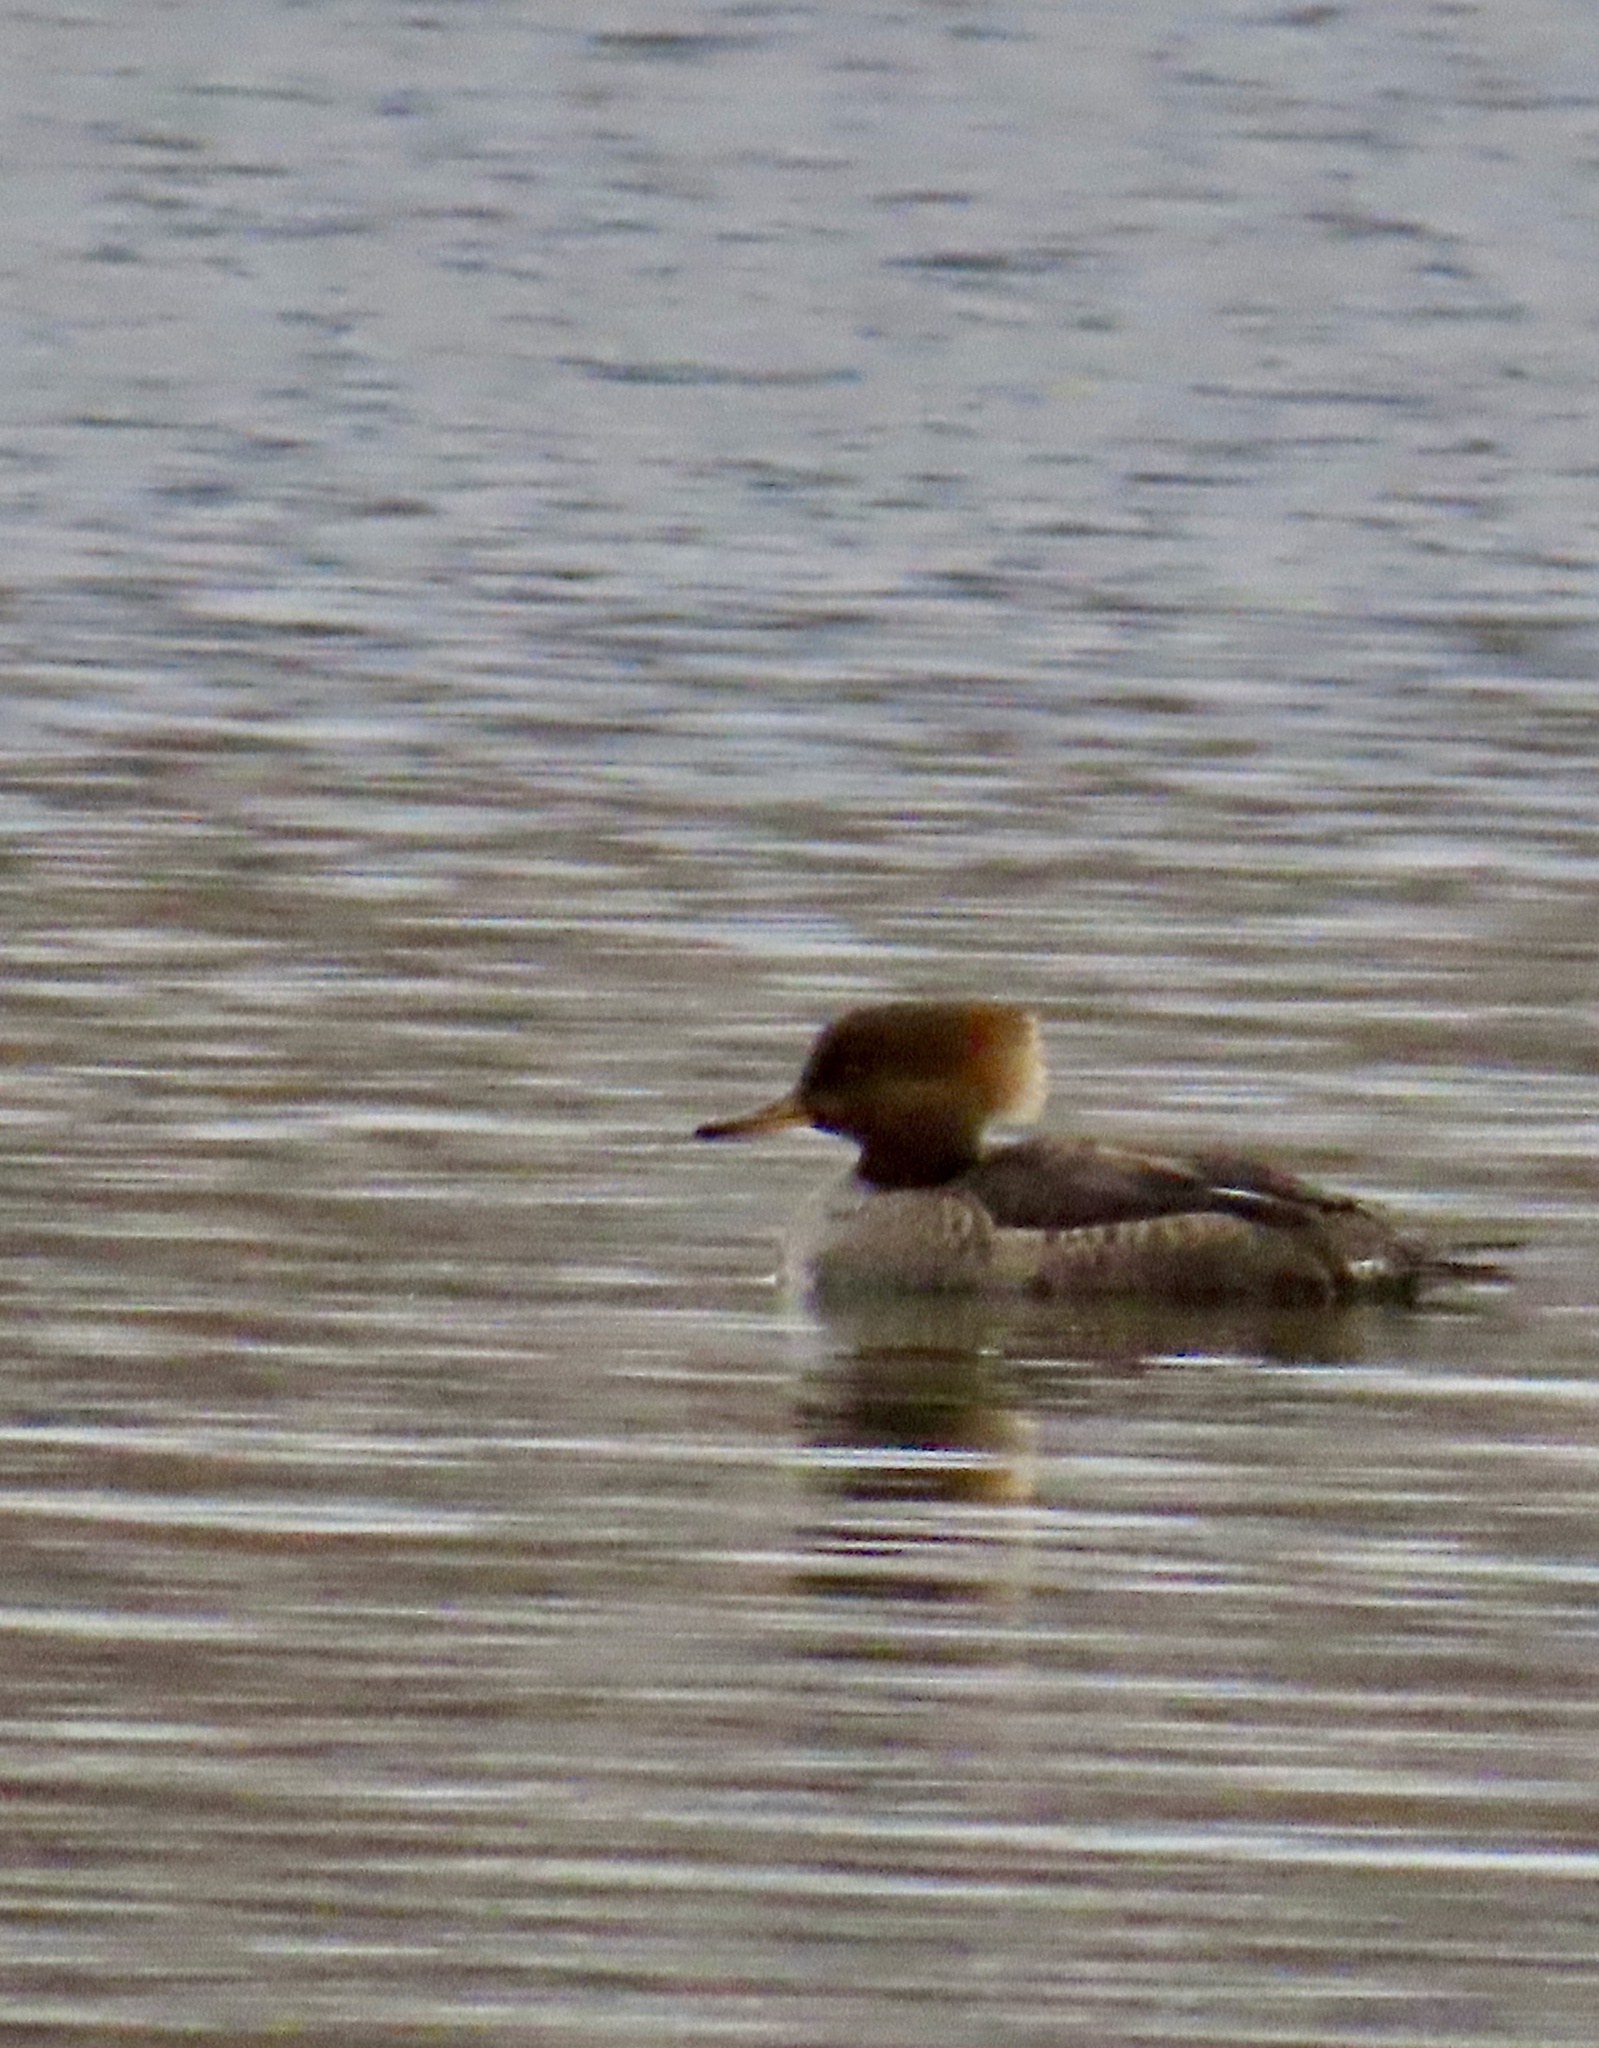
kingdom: Animalia
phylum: Chordata
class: Aves
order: Anseriformes
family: Anatidae
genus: Lophodytes
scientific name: Lophodytes cucullatus
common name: Hooded merganser
